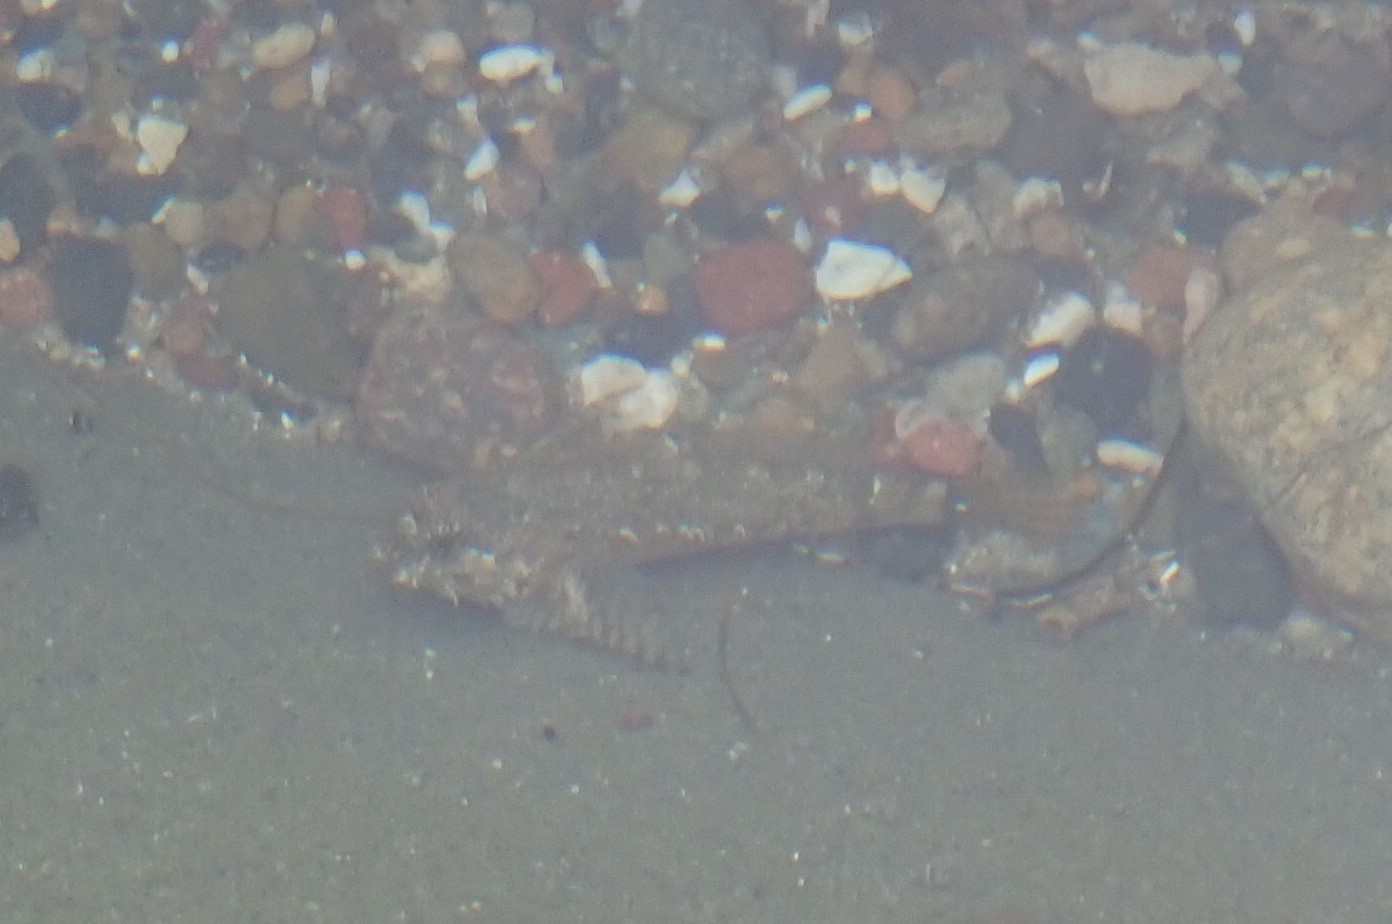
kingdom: Animalia
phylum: Chordata
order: Scorpaeniformes
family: Cottidae
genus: Clinocottus
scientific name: Clinocottus analis
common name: Woolly sculpin
